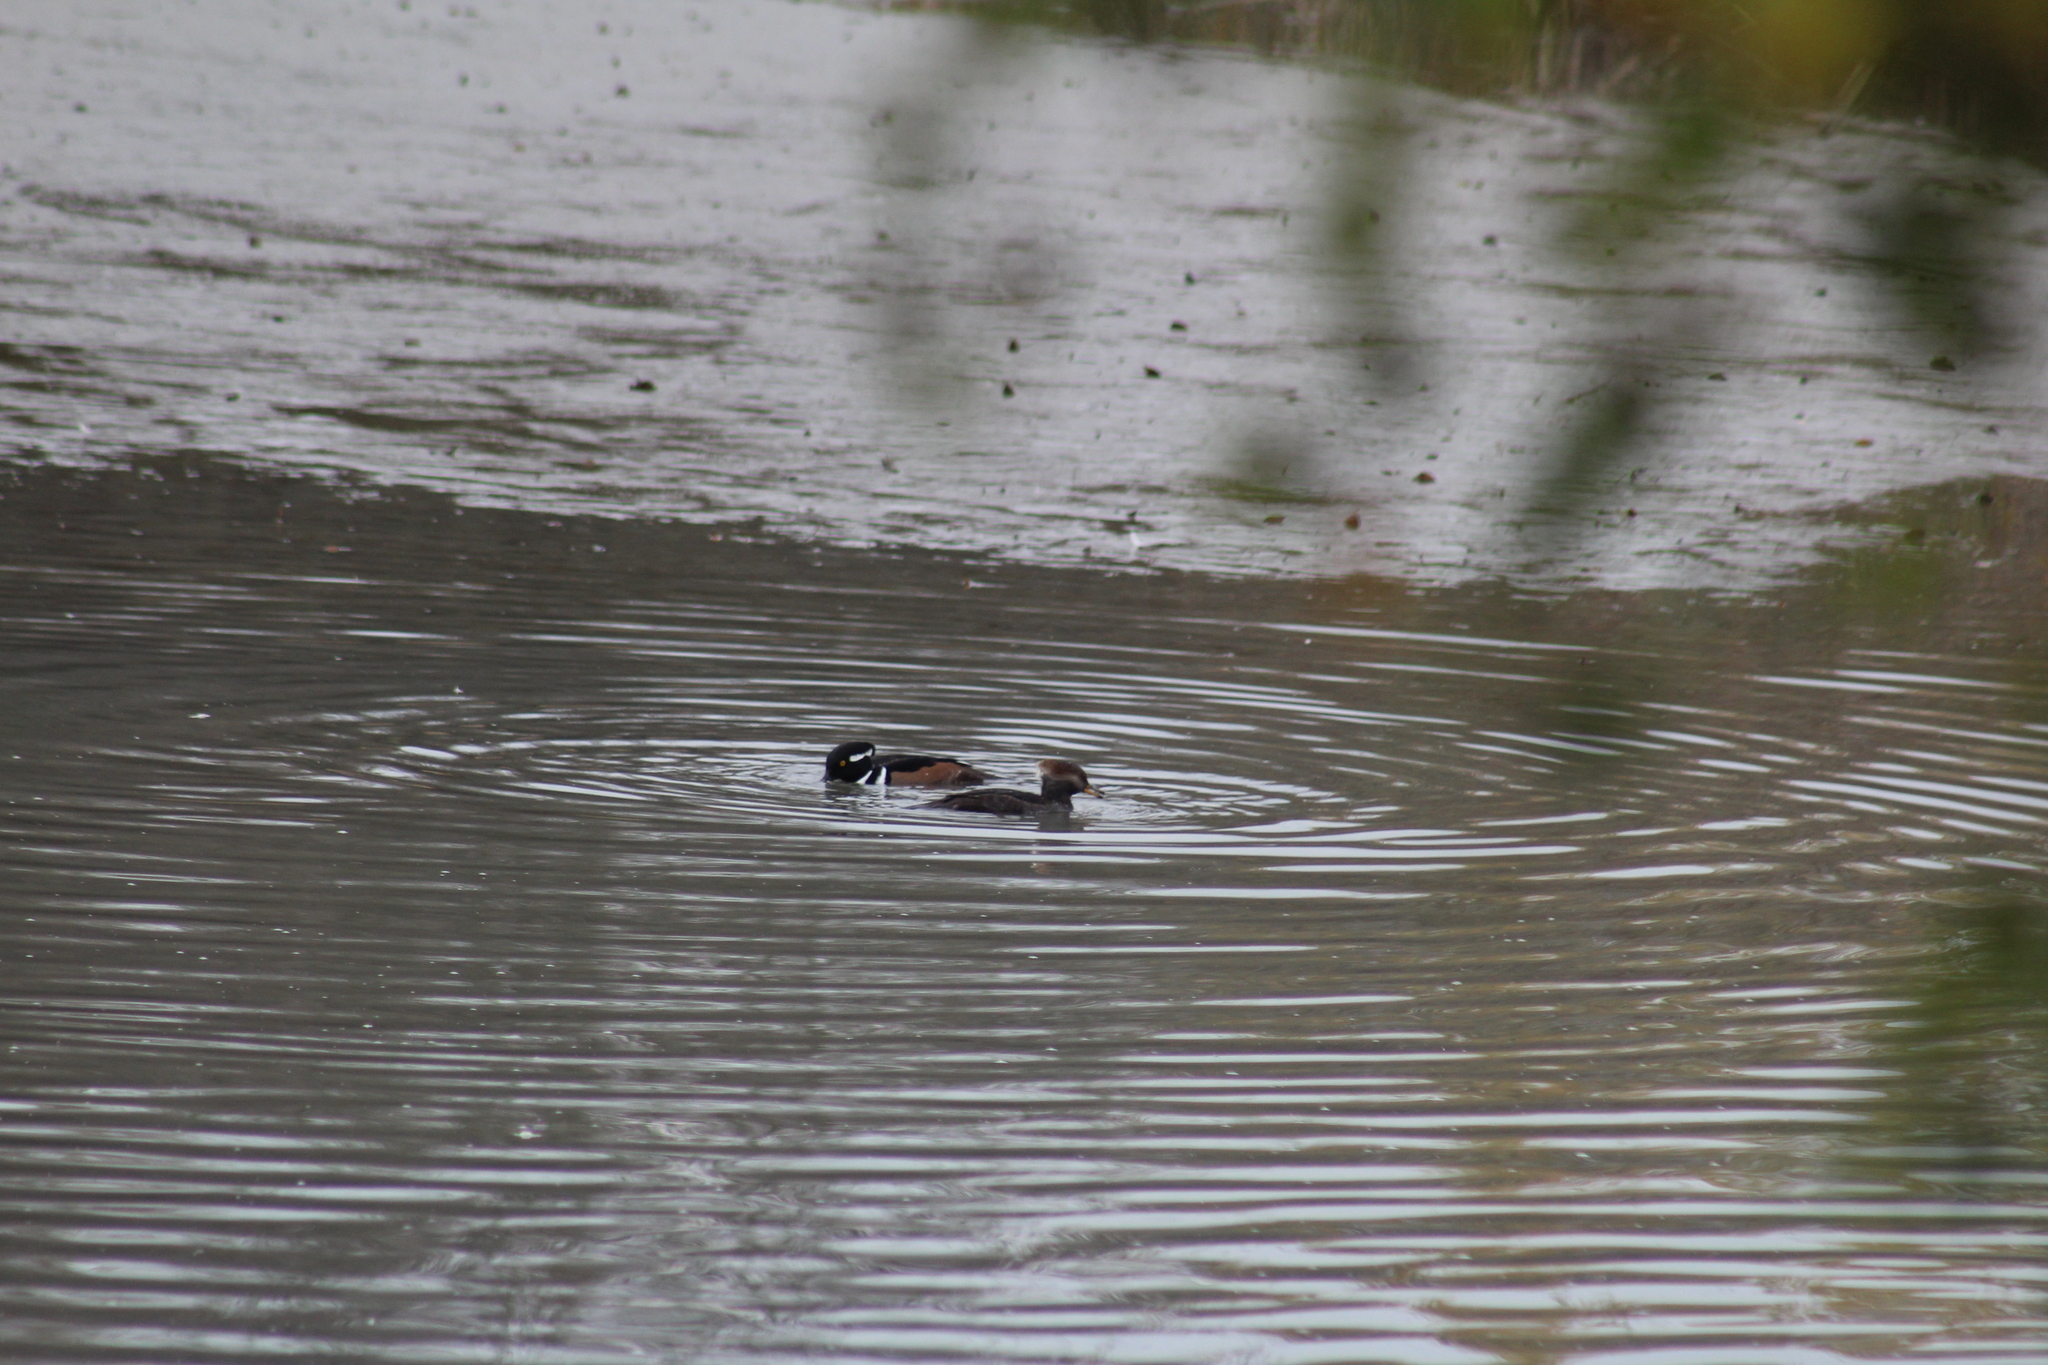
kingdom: Animalia
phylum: Chordata
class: Aves
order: Anseriformes
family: Anatidae
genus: Lophodytes
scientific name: Lophodytes cucullatus
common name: Hooded merganser
